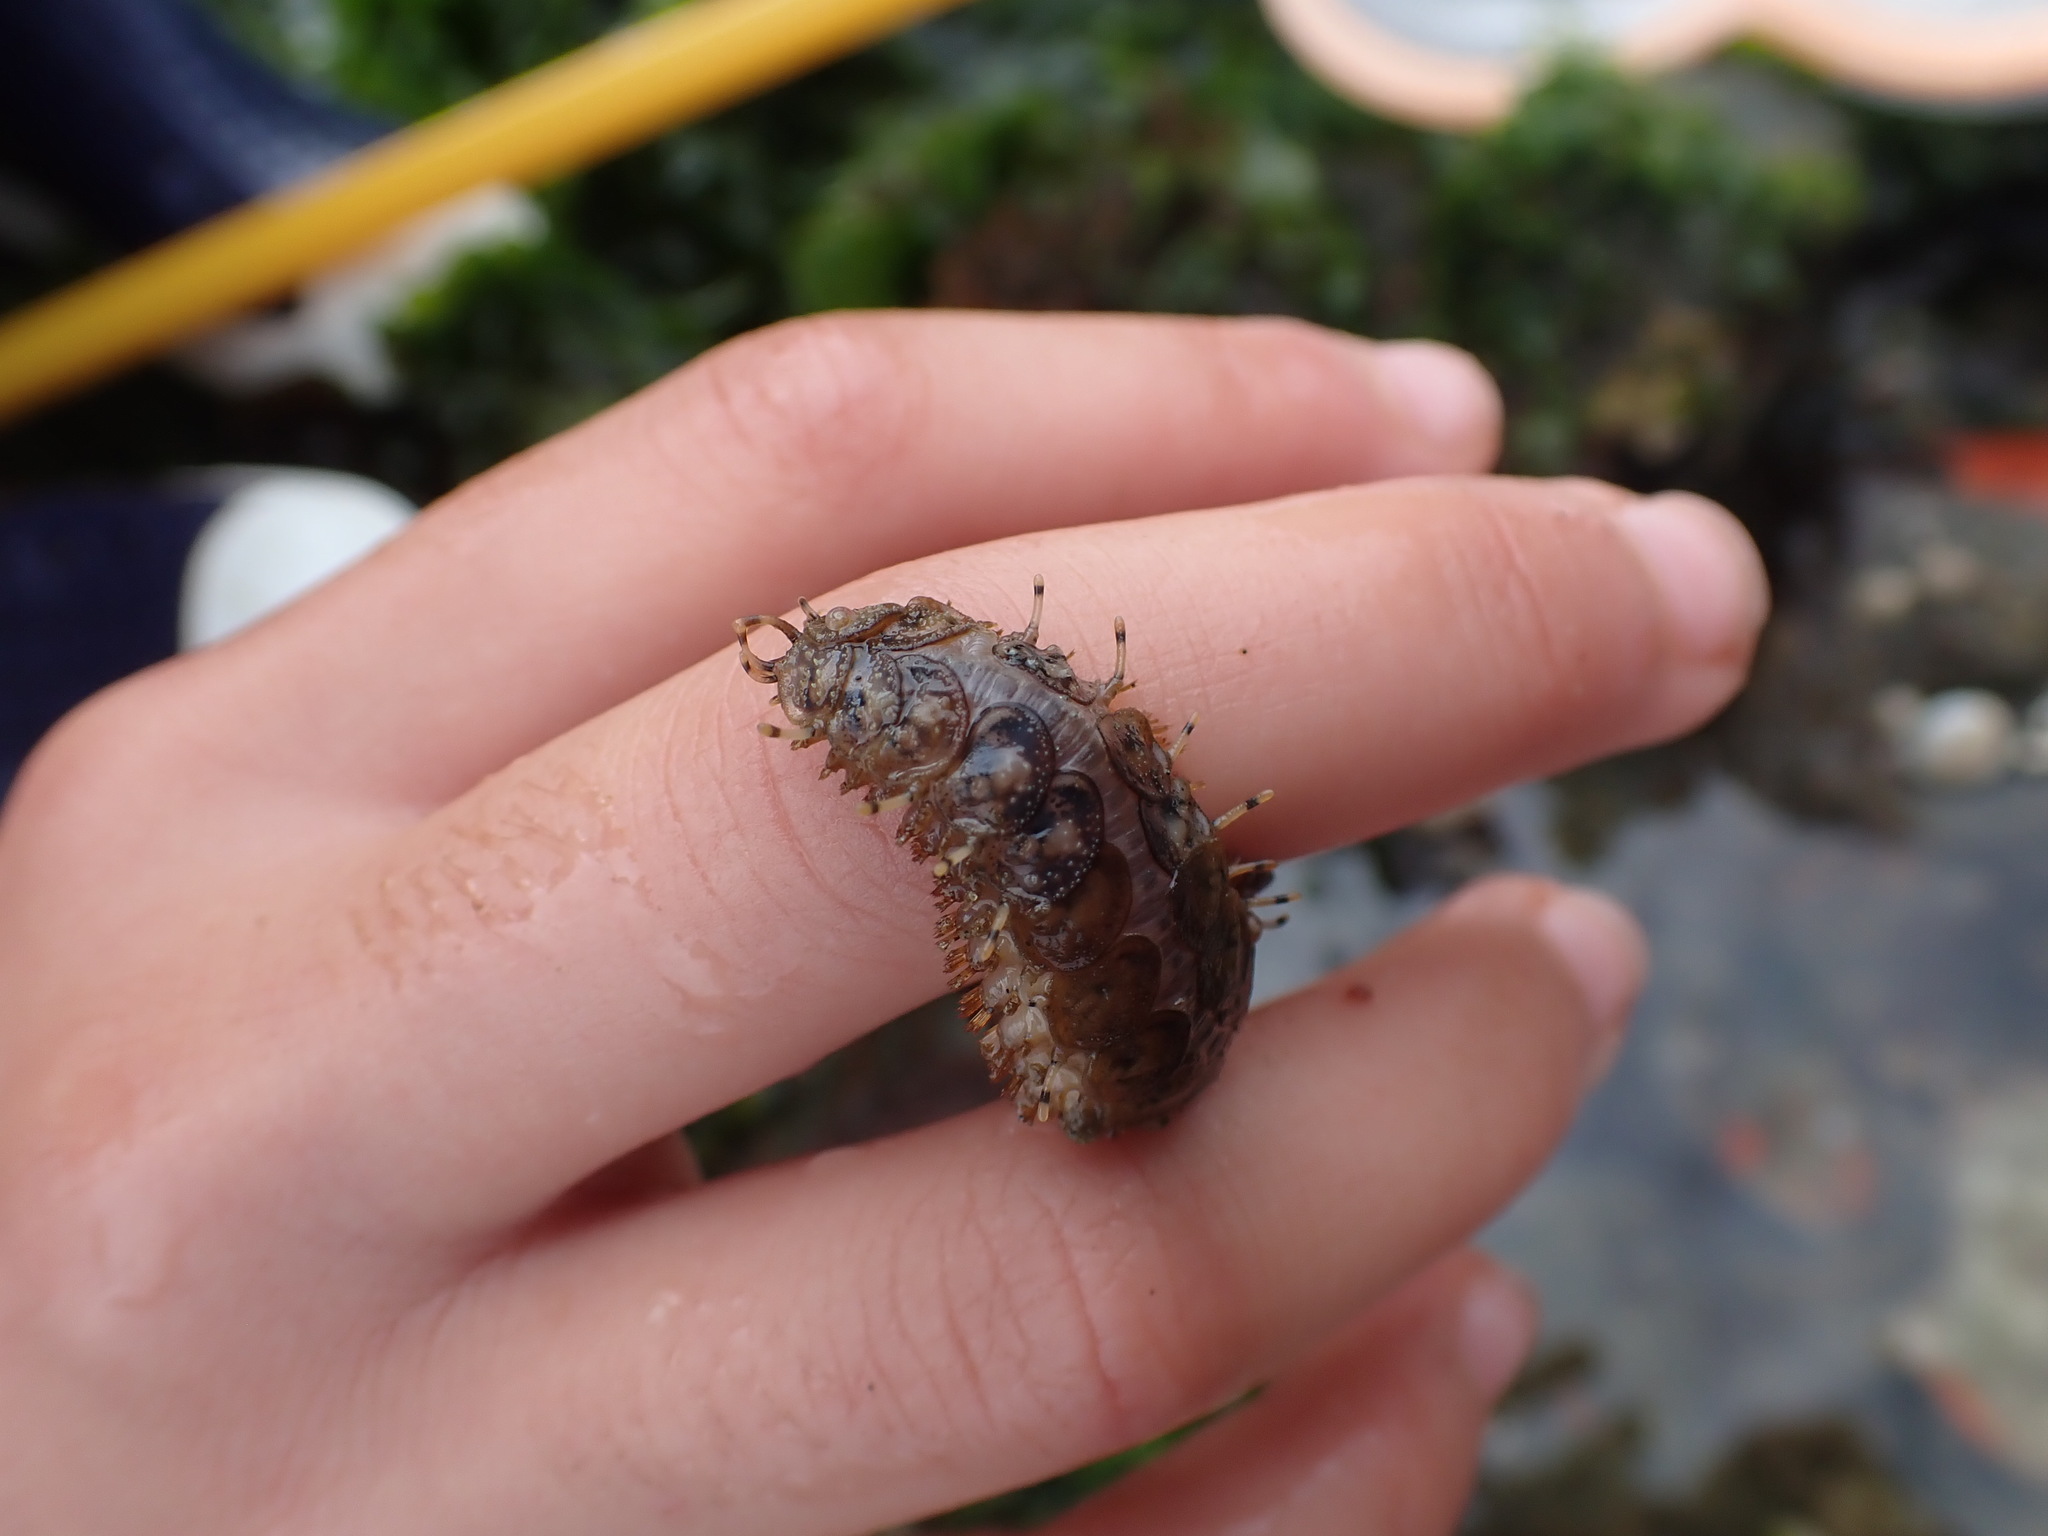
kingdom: Animalia
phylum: Annelida
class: Polychaeta
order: Phyllodocida
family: Polynoidae
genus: Halosydna
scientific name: Halosydna brevisetosa
